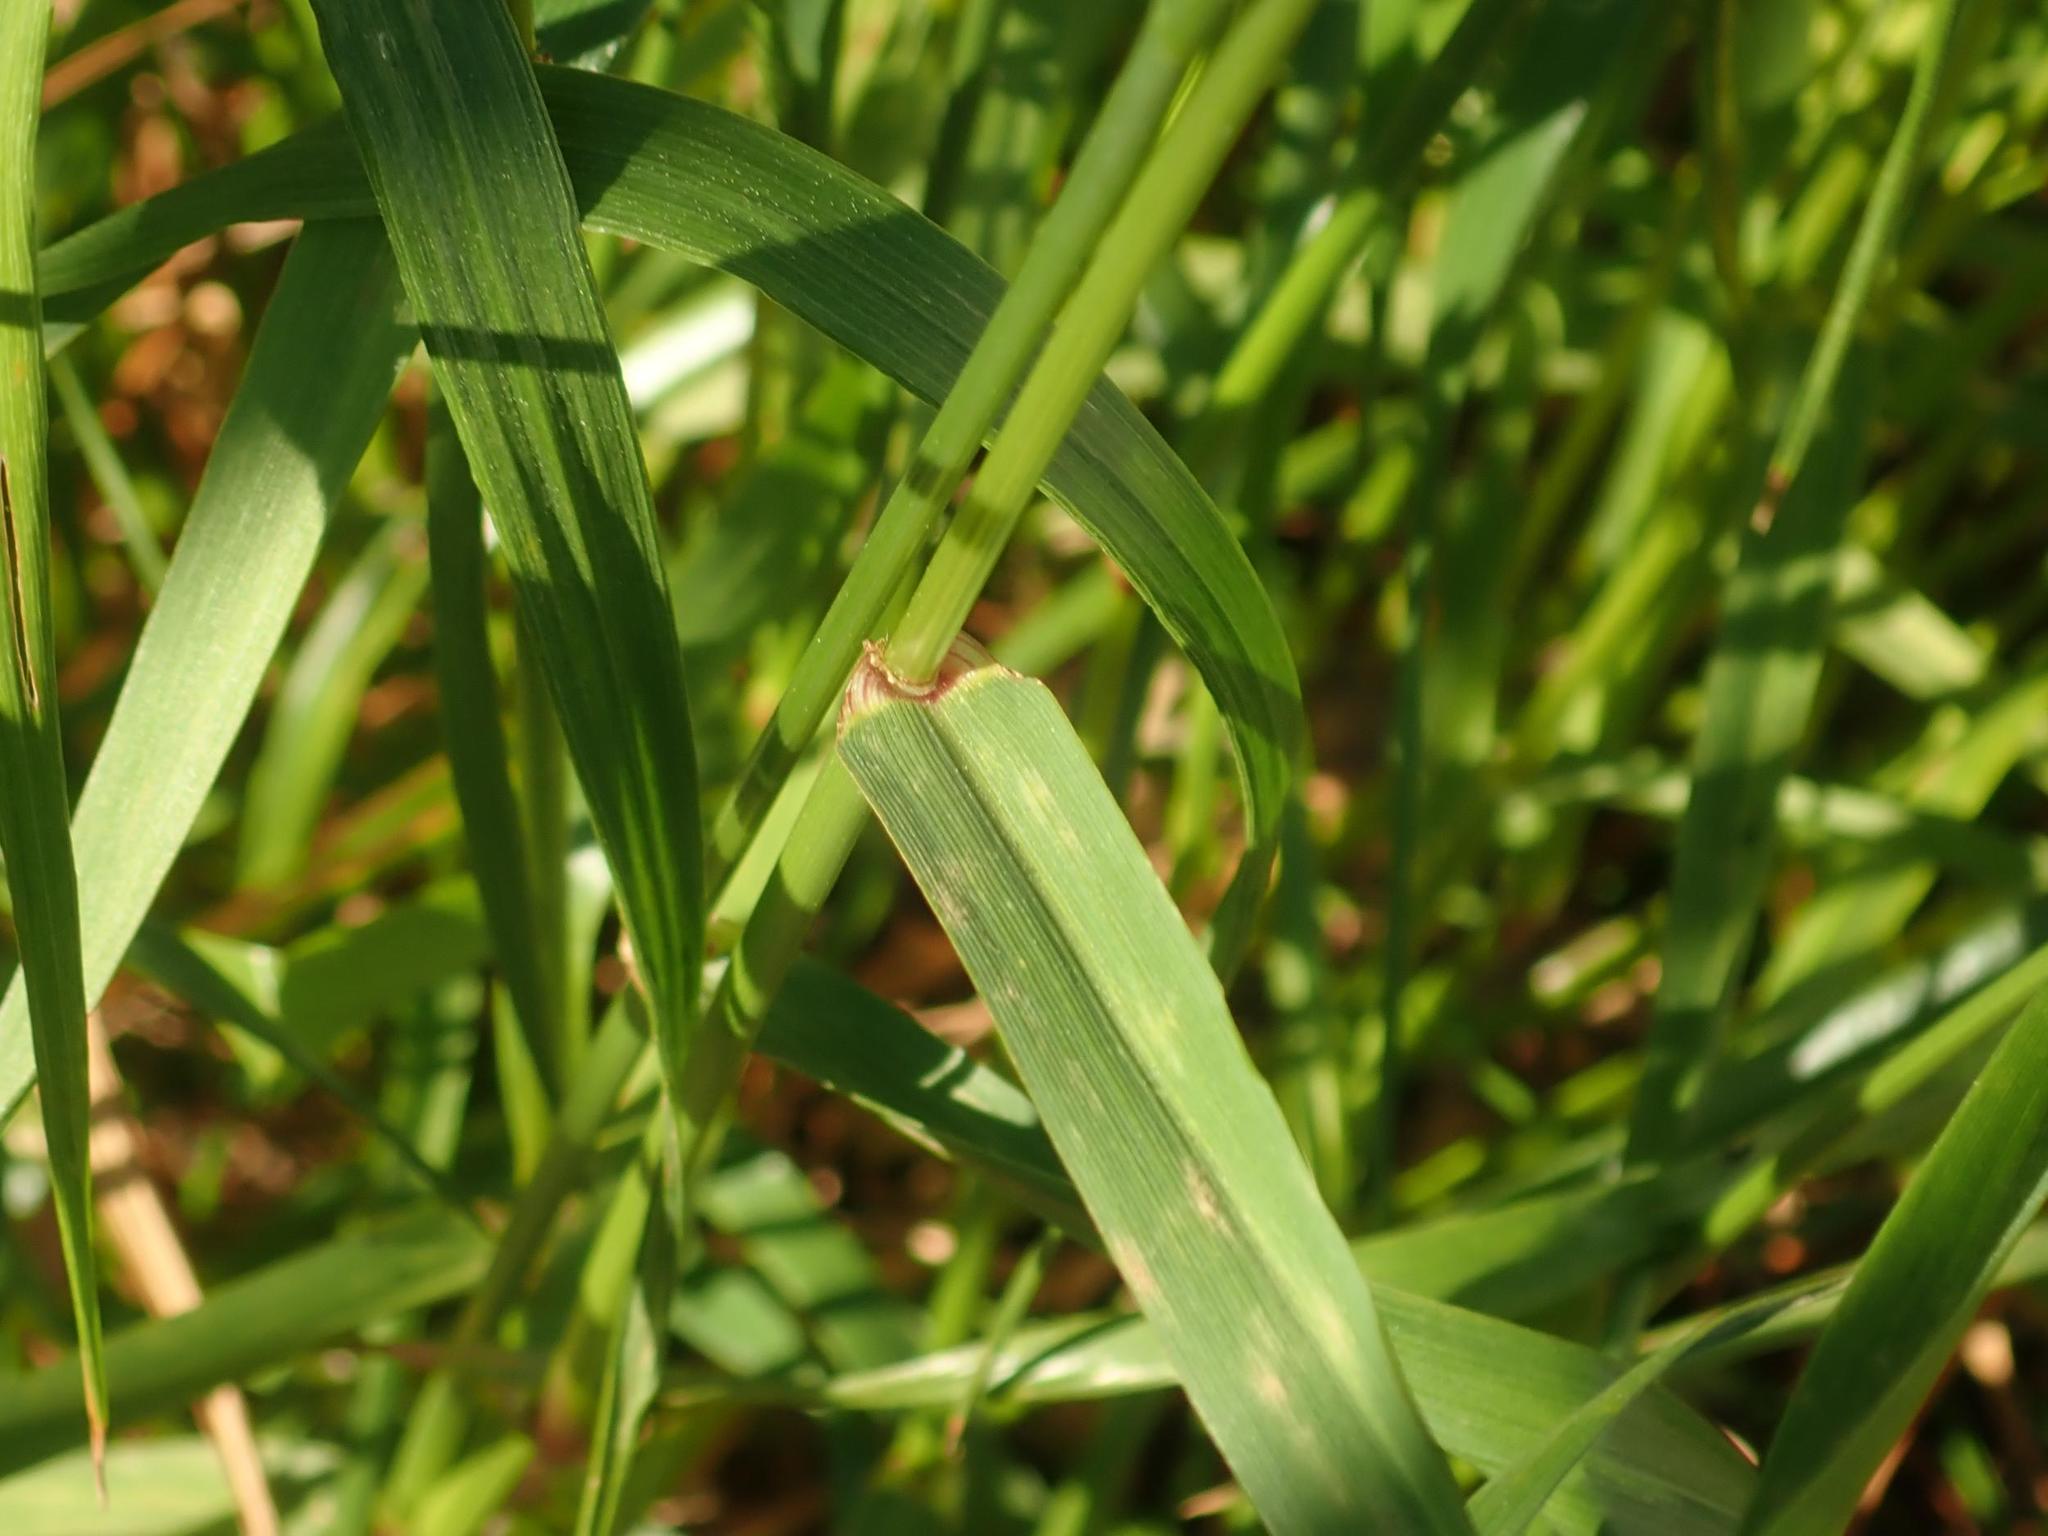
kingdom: Plantae
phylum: Tracheophyta
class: Liliopsida
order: Poales
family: Poaceae
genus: Lolium
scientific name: Lolium multiflorum
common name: Annual ryegrass
